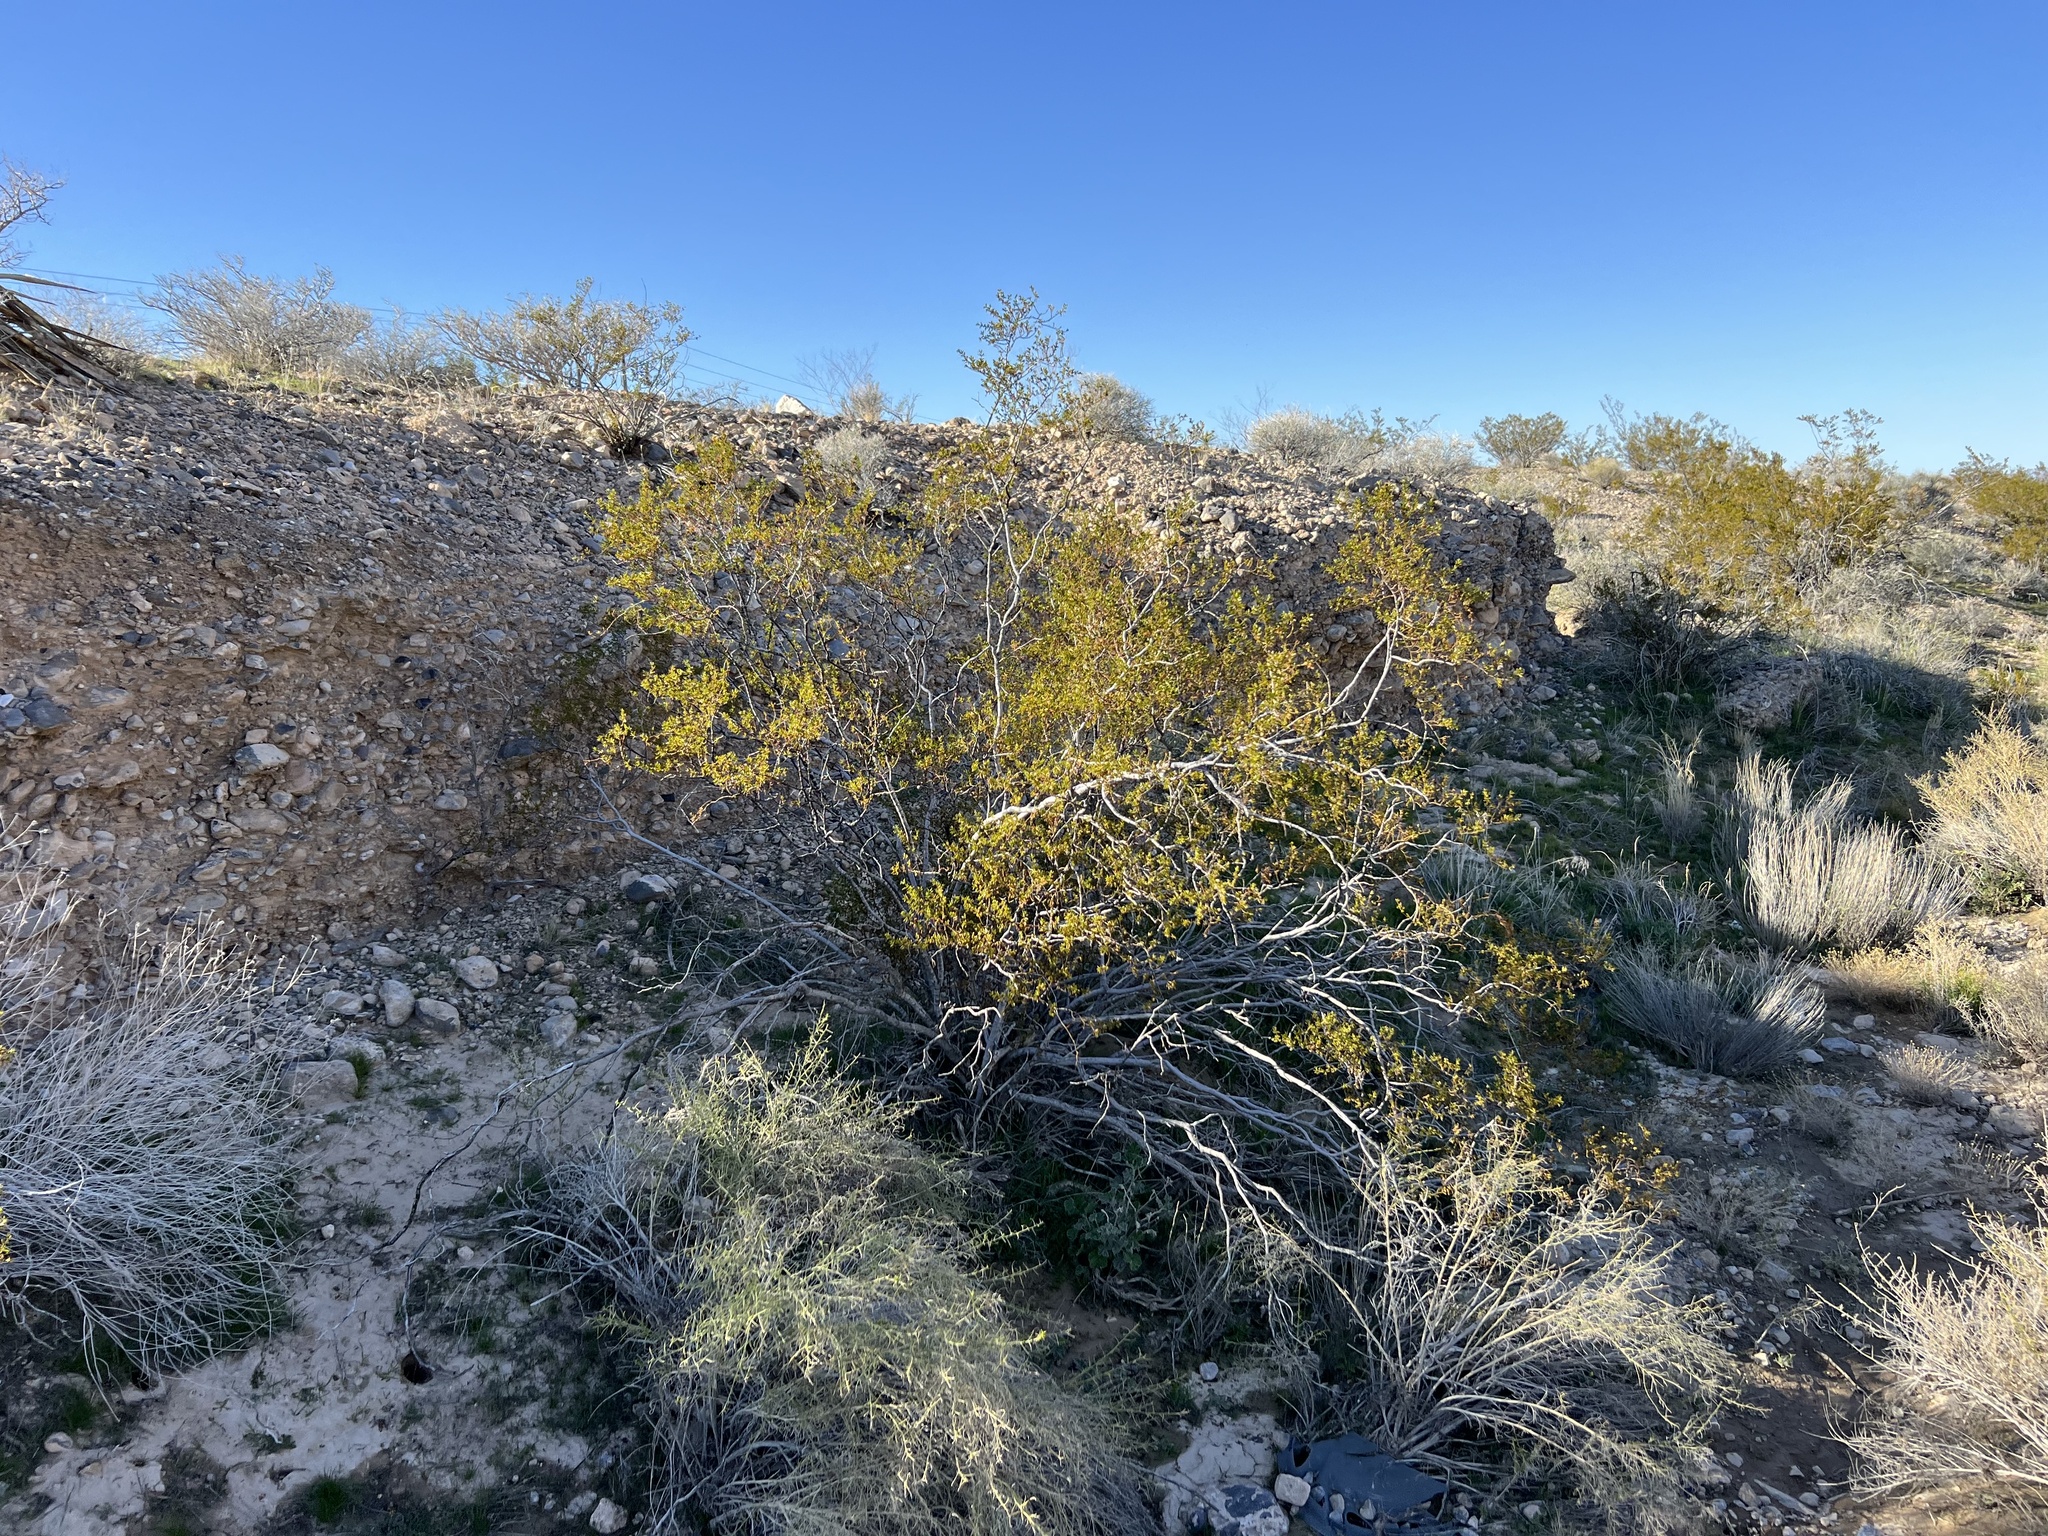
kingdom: Plantae
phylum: Tracheophyta
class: Magnoliopsida
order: Zygophyllales
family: Zygophyllaceae
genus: Larrea
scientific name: Larrea tridentata
